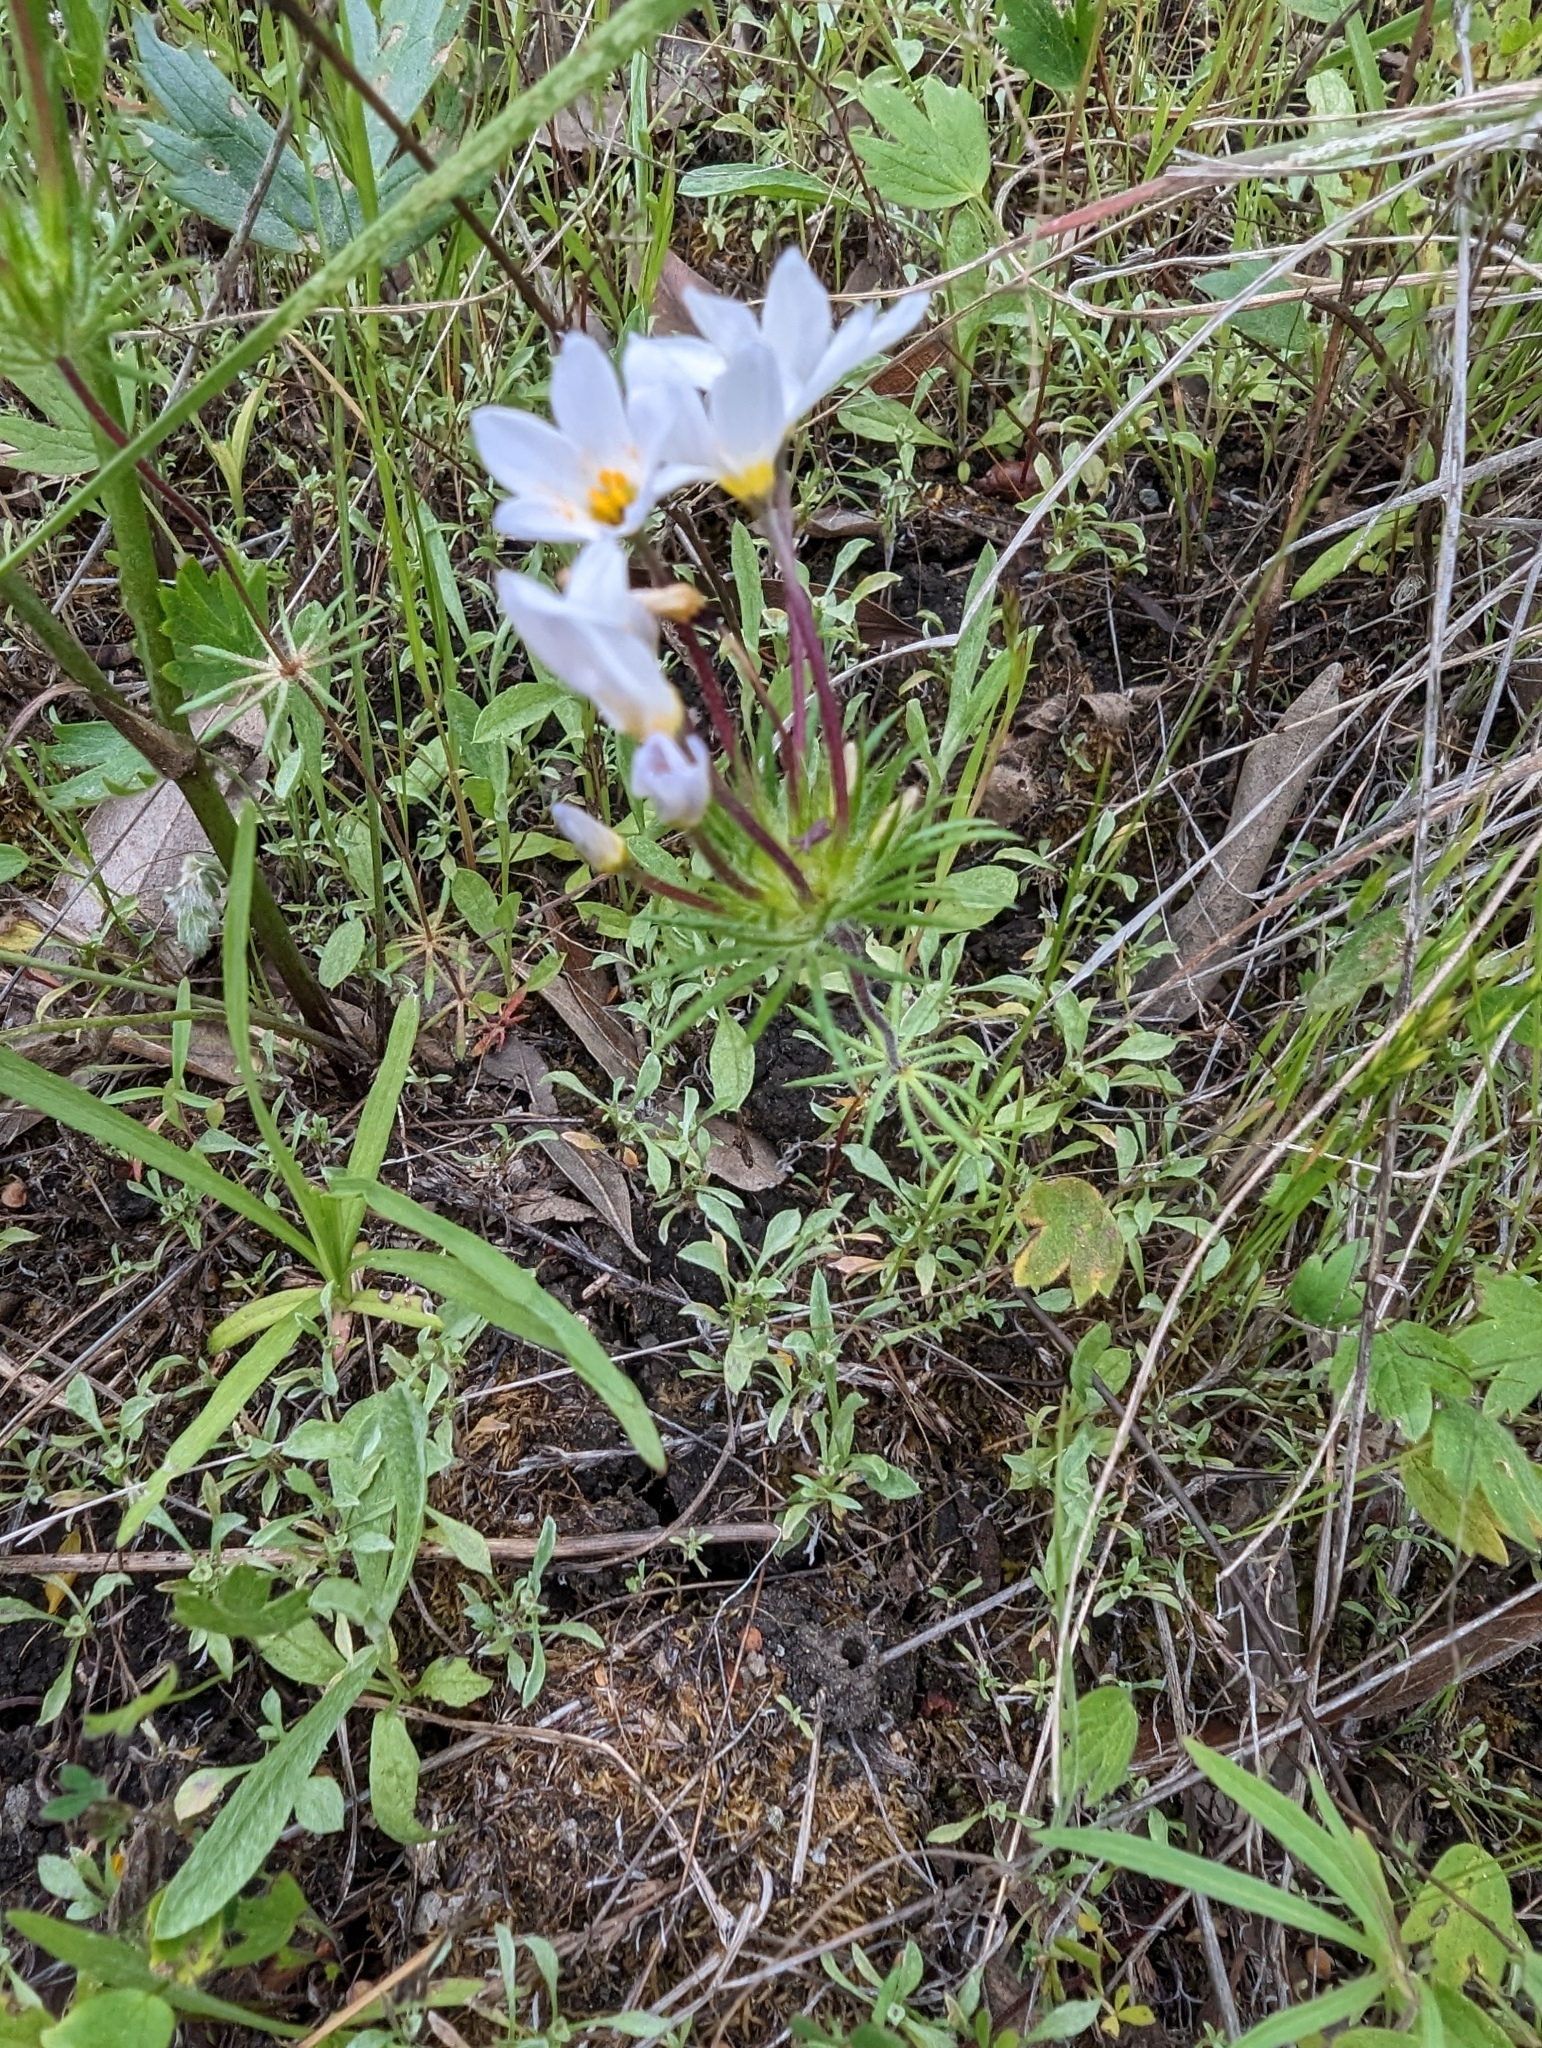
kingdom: Plantae
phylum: Tracheophyta
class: Magnoliopsida
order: Ericales
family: Polemoniaceae
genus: Leptosiphon
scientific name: Leptosiphon androsaceus
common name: False babystars
